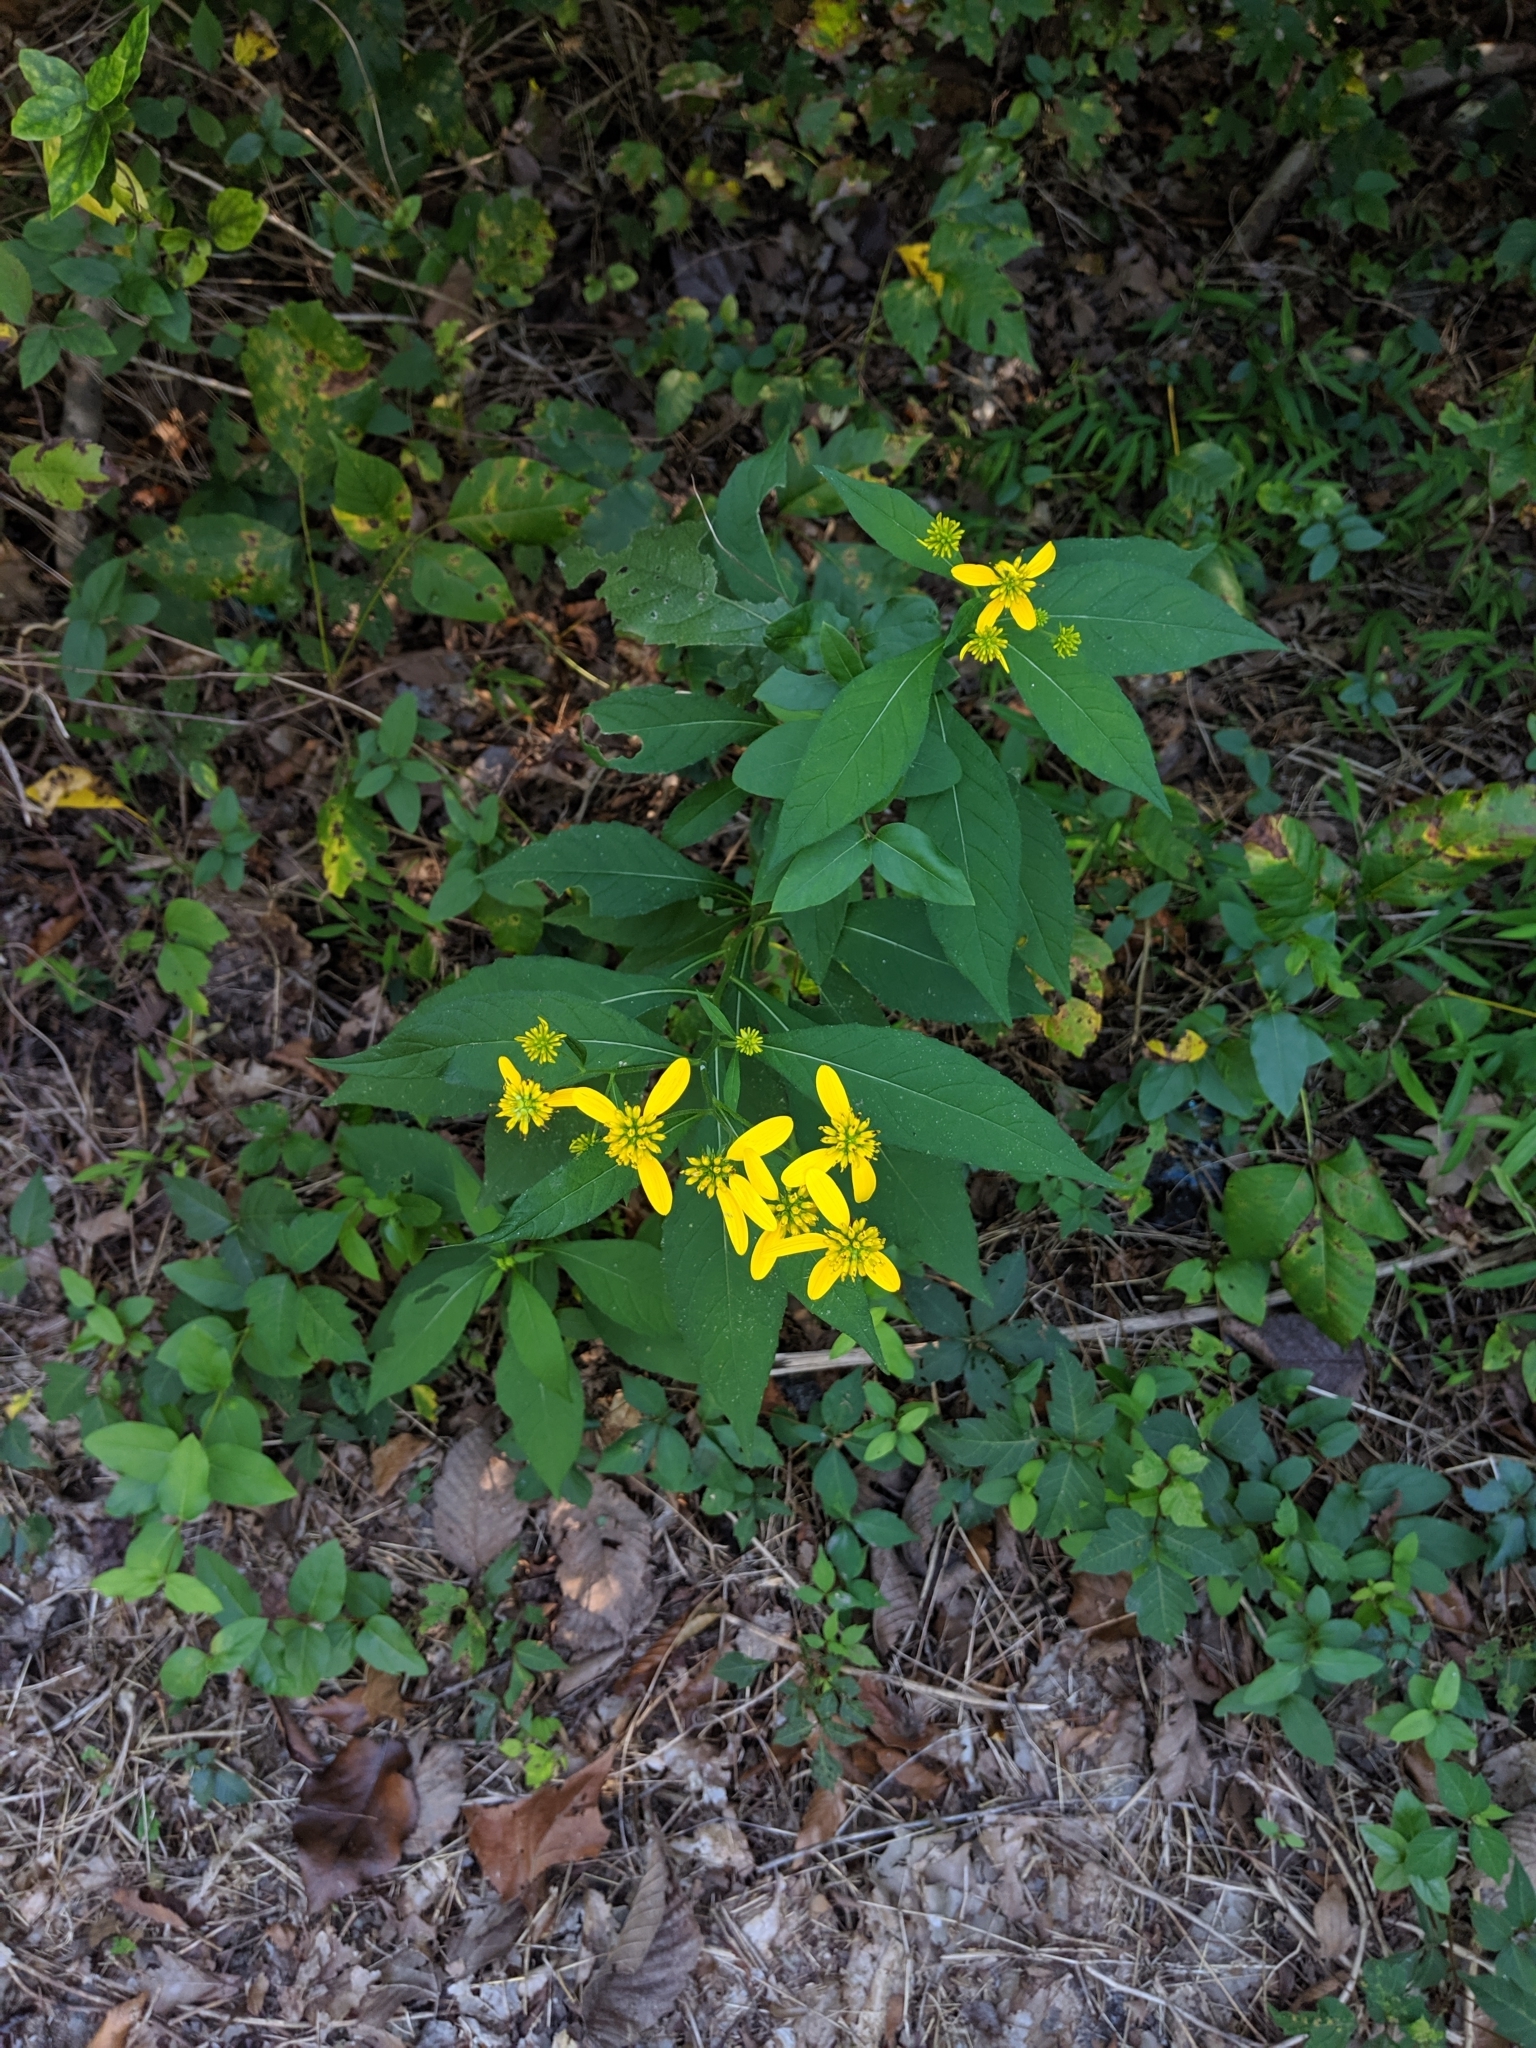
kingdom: Plantae
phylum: Tracheophyta
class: Magnoliopsida
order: Asterales
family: Asteraceae
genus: Verbesina
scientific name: Verbesina alternifolia
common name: Wingstem
